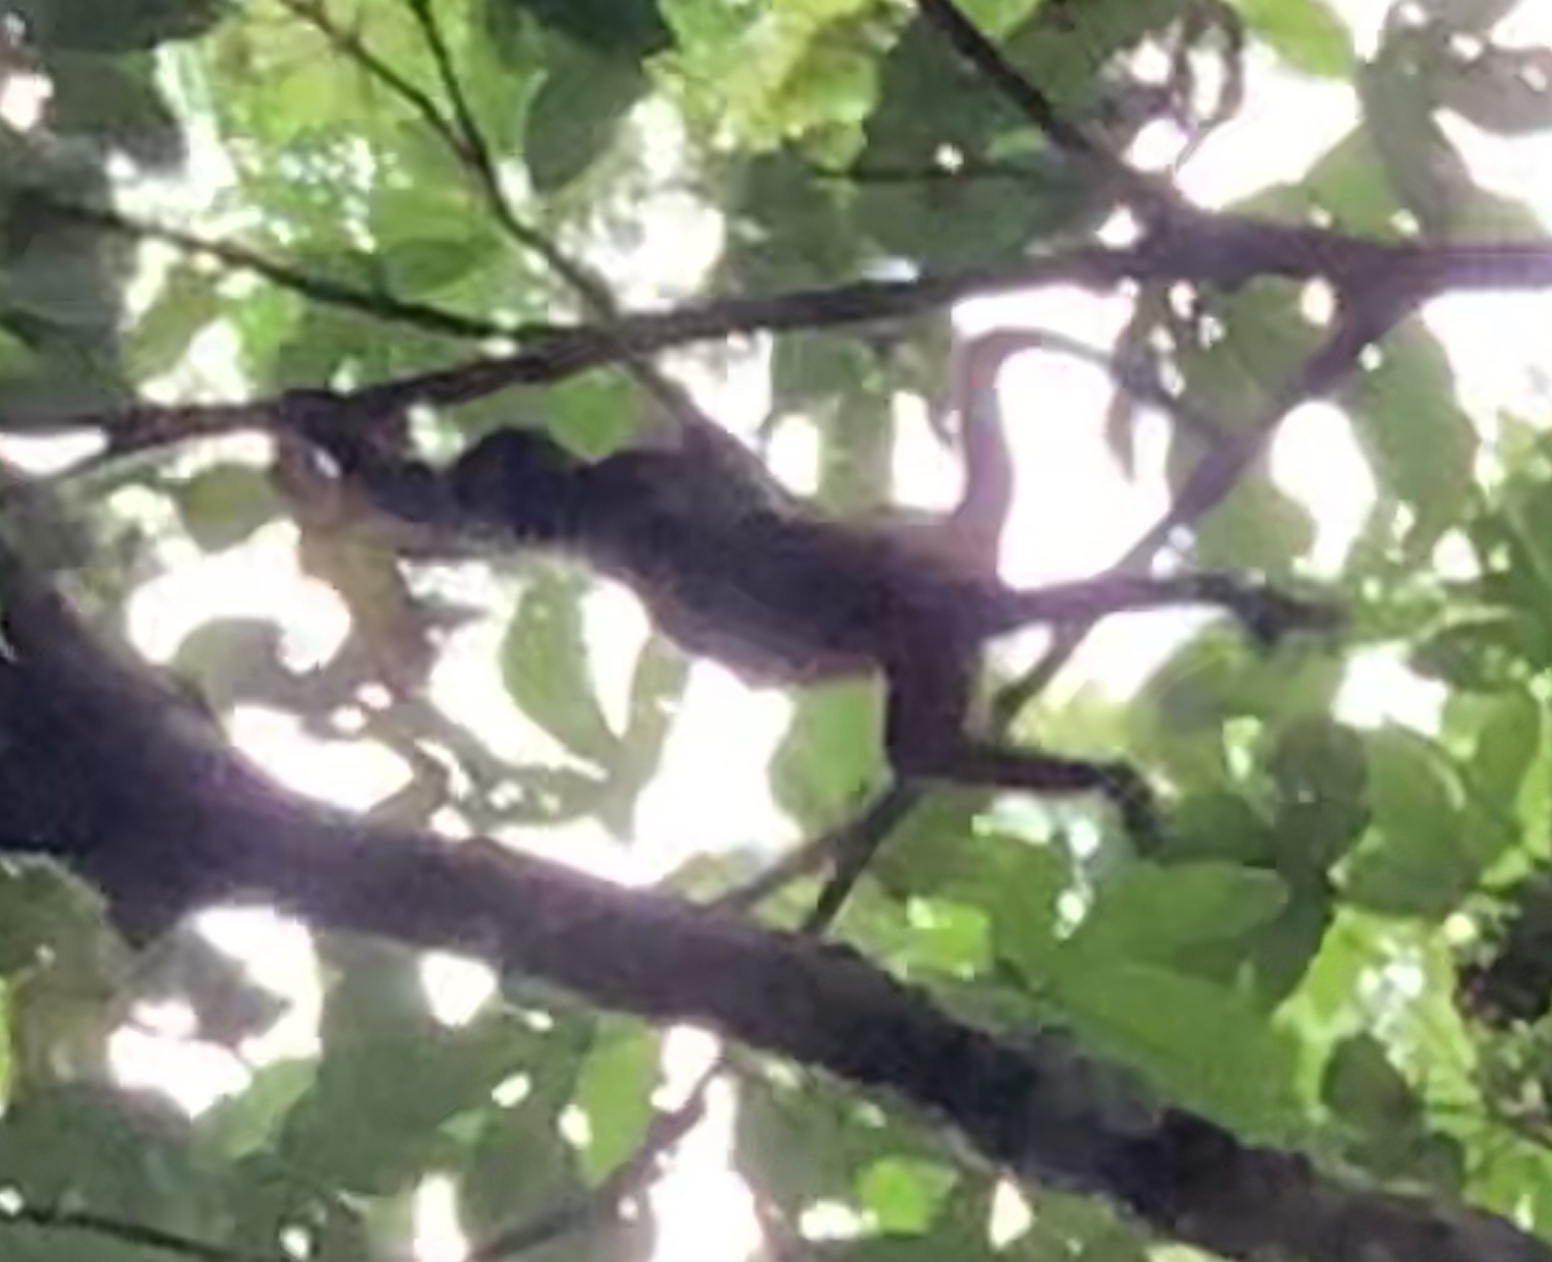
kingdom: Animalia
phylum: Chordata
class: Mammalia
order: Primates
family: Atelidae
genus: Ateles
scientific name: Ateles geoffroyi
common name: Black-handed spider monkey
